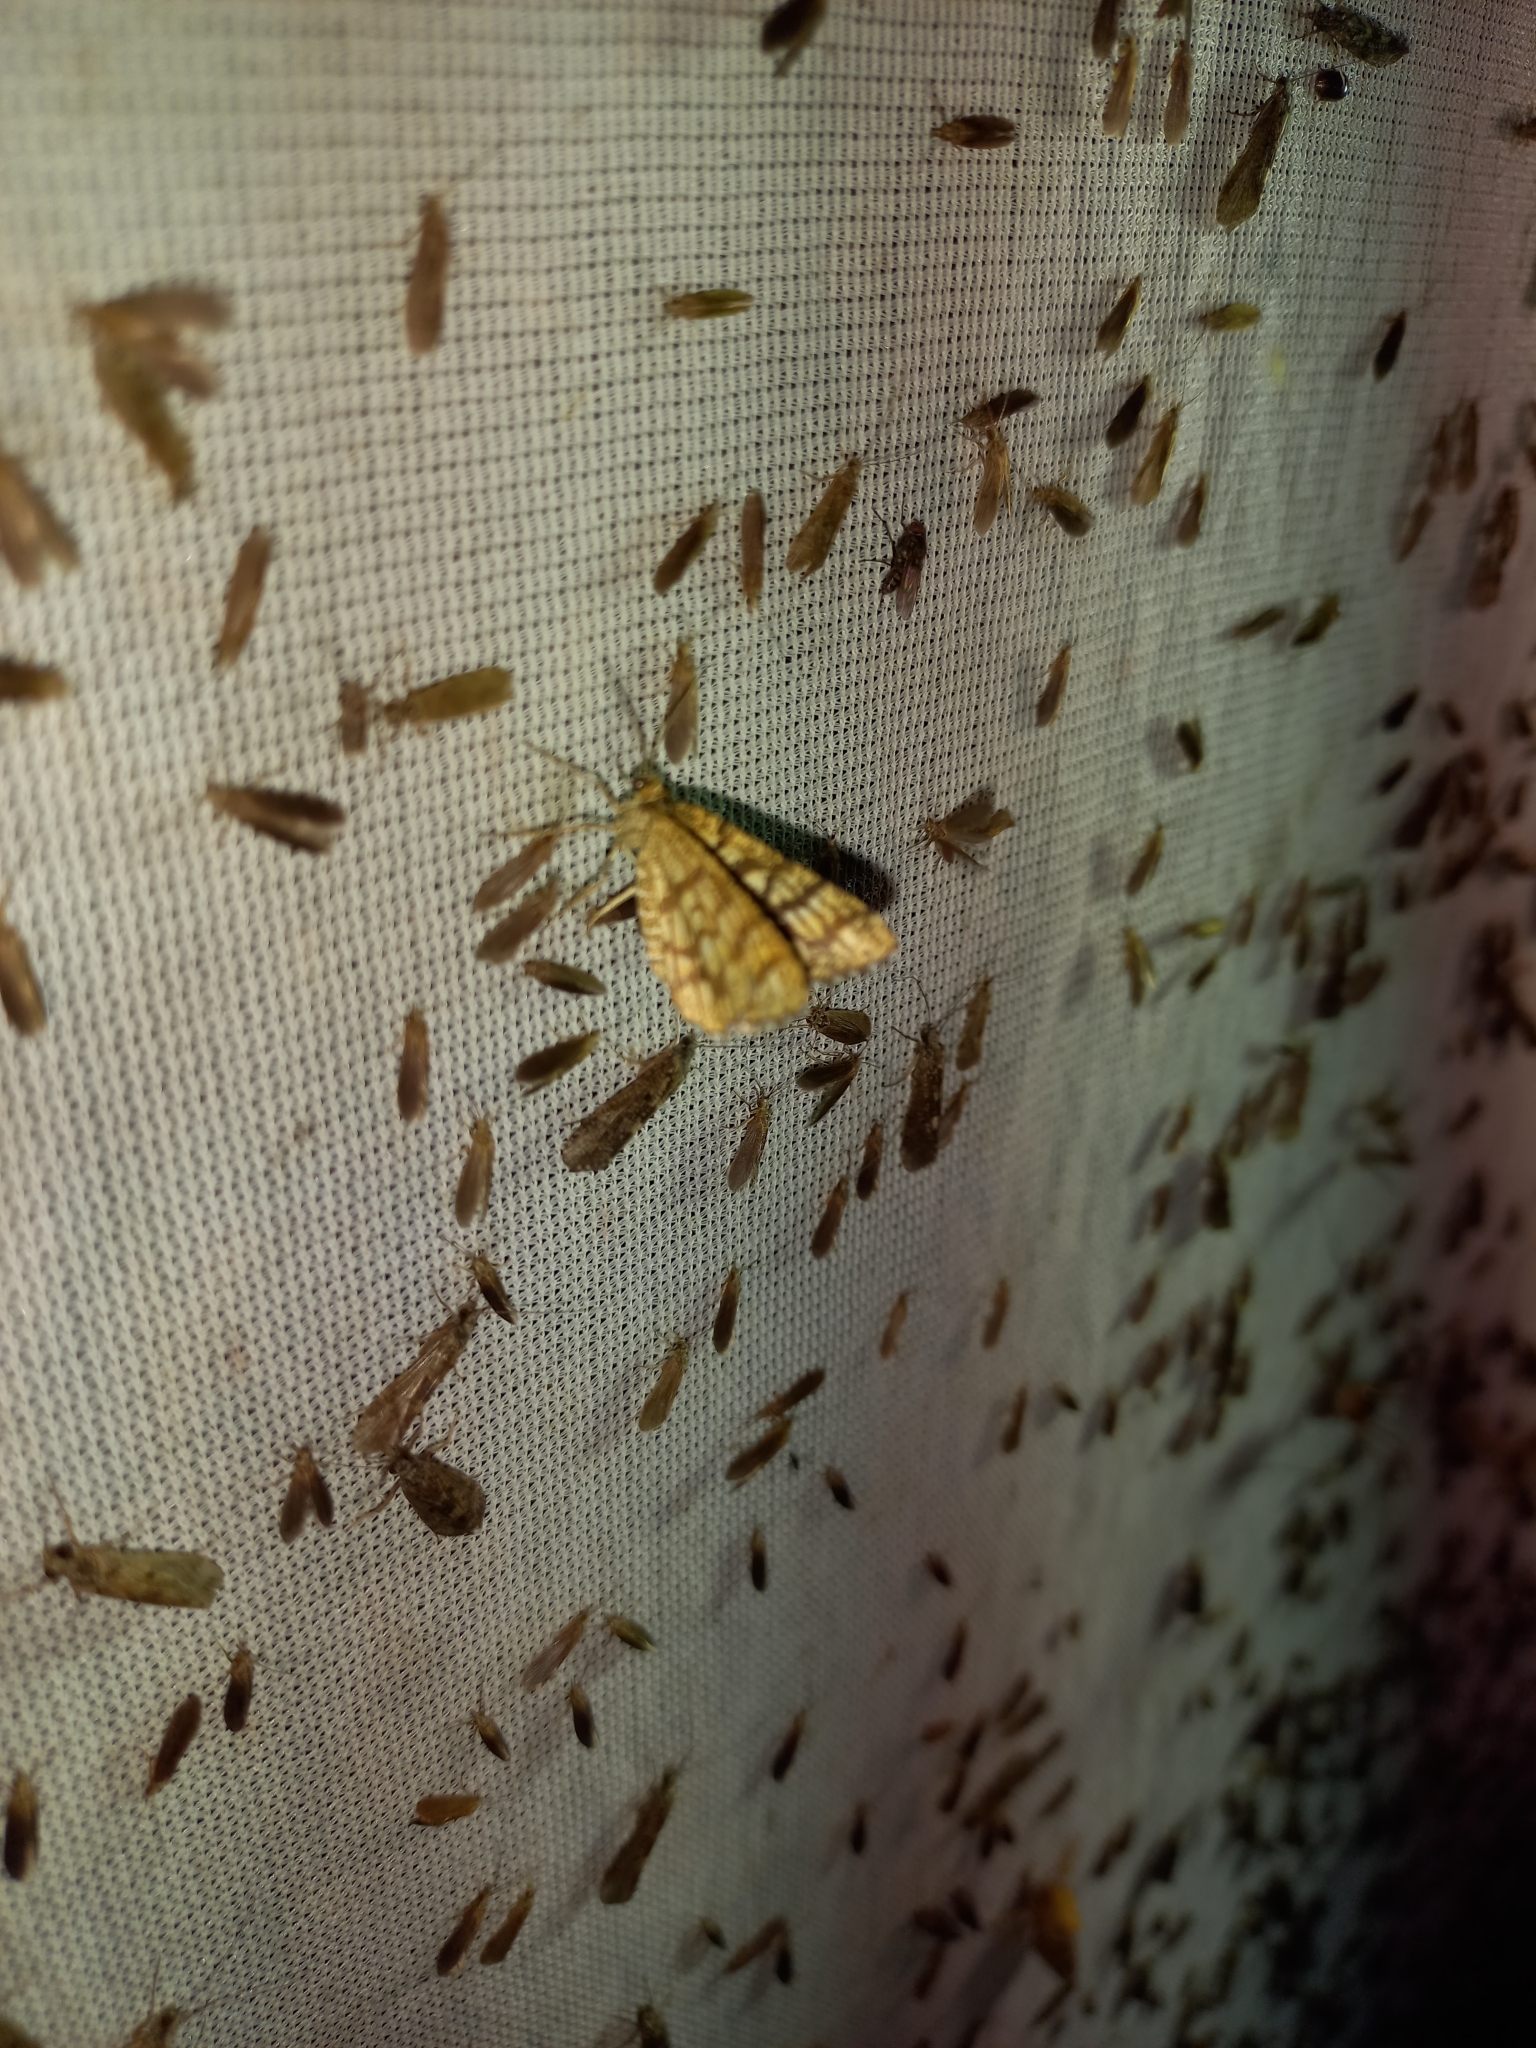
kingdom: Animalia
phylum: Arthropoda
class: Insecta
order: Lepidoptera
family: Geometridae
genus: Chiasmia
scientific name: Chiasmia clathrata
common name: Latticed heath
